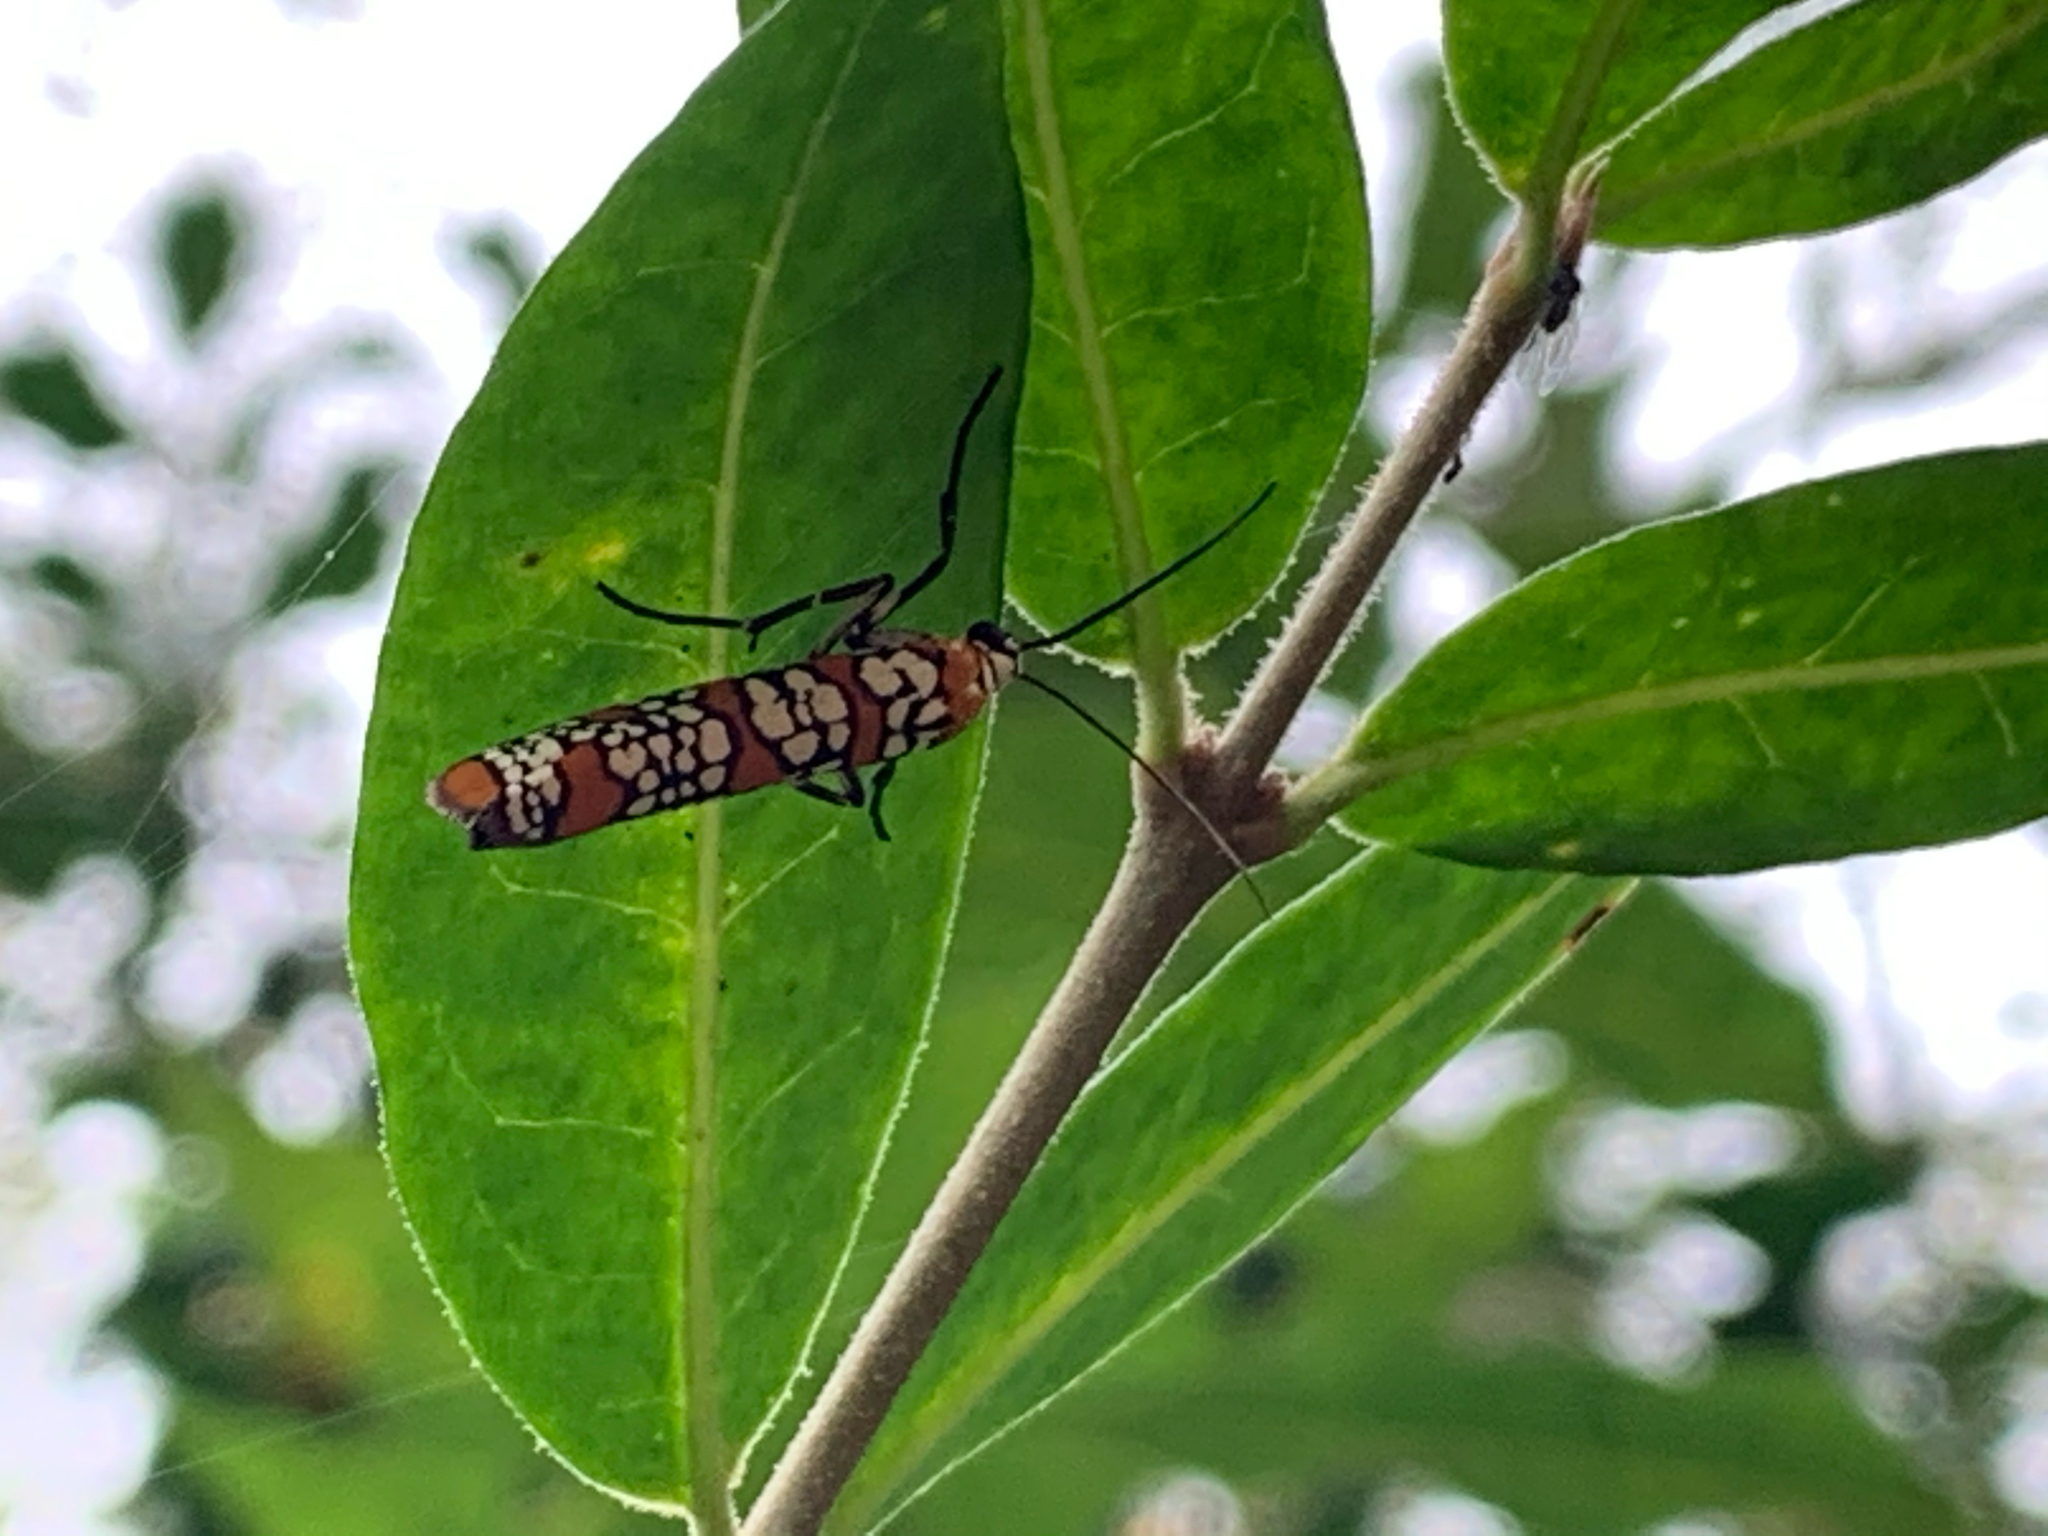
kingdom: Animalia
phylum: Arthropoda
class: Insecta
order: Lepidoptera
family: Attevidae
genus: Atteva
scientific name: Atteva punctella
